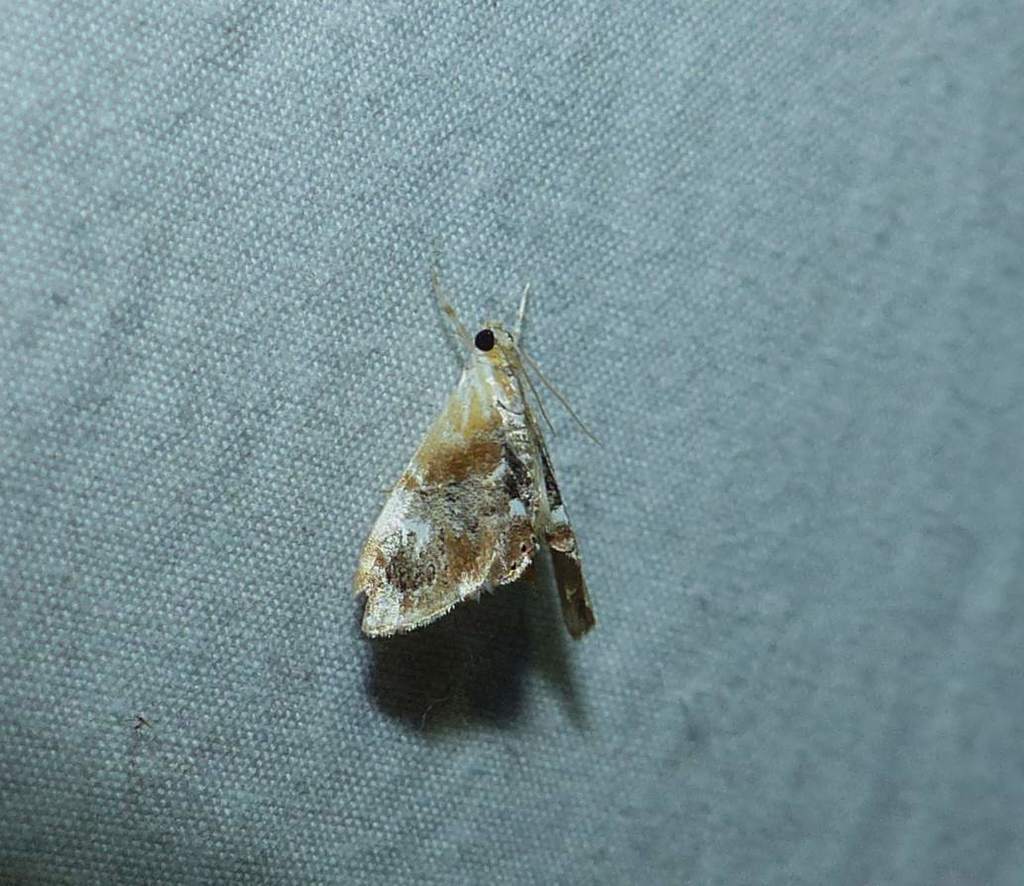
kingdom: Animalia
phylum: Arthropoda
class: Insecta
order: Lepidoptera
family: Crambidae
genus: Dicymolomia
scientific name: Dicymolomia julianalis
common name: Julia's dicymolomia moth
